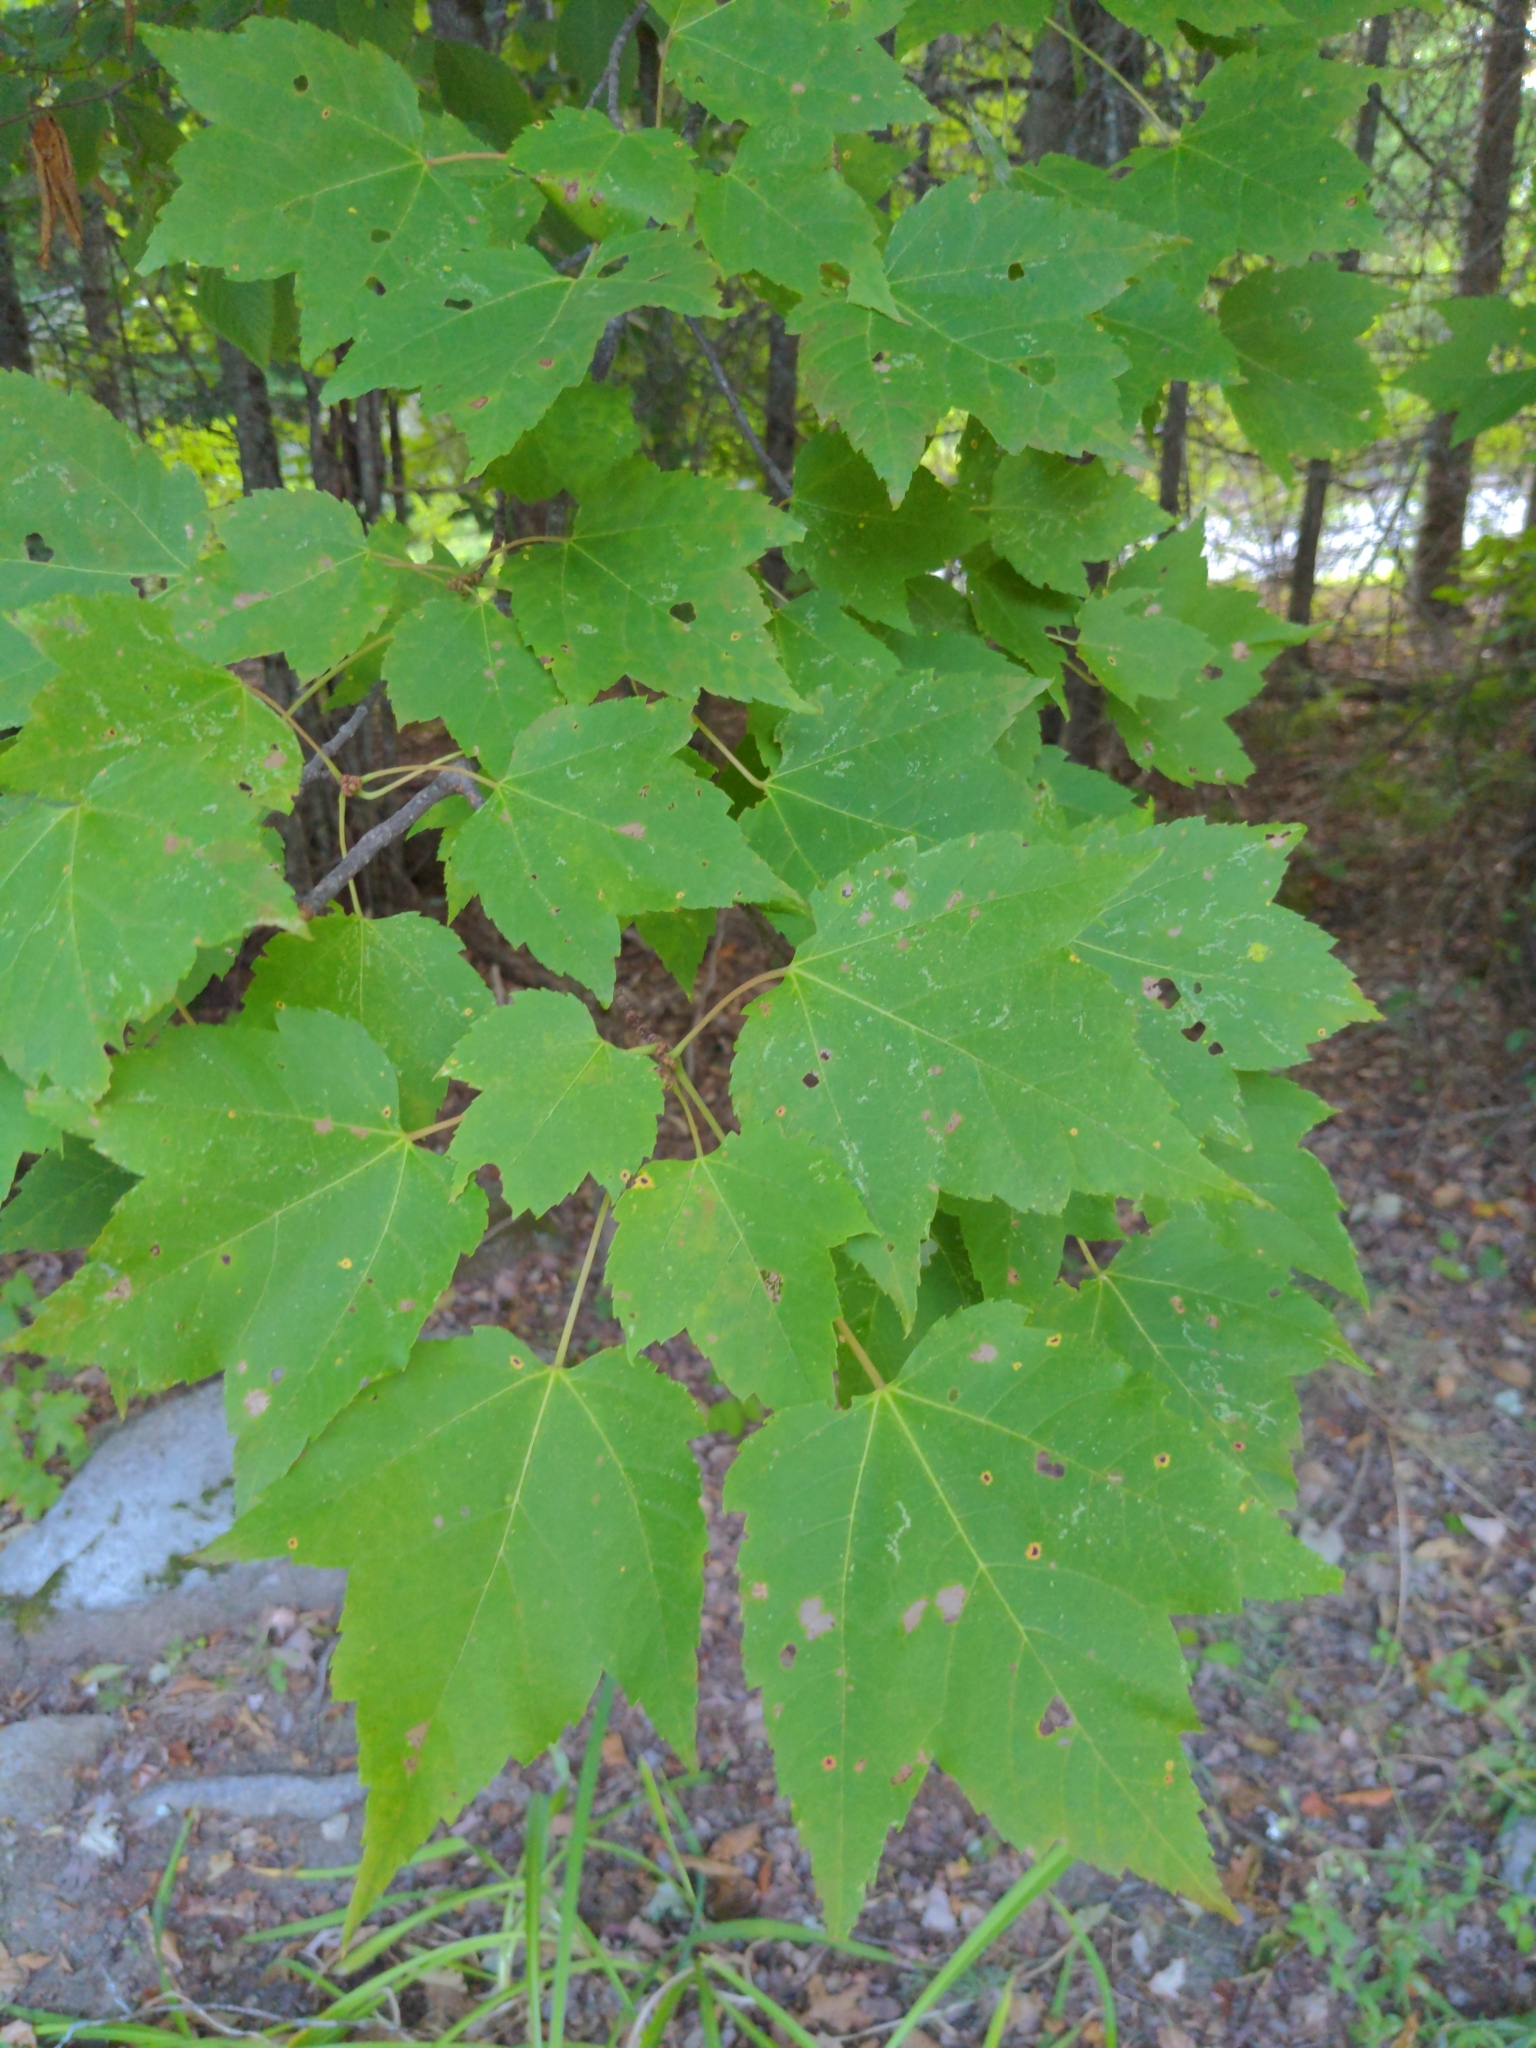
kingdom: Plantae
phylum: Tracheophyta
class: Magnoliopsida
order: Sapindales
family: Sapindaceae
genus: Acer
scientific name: Acer rubrum
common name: Red maple
